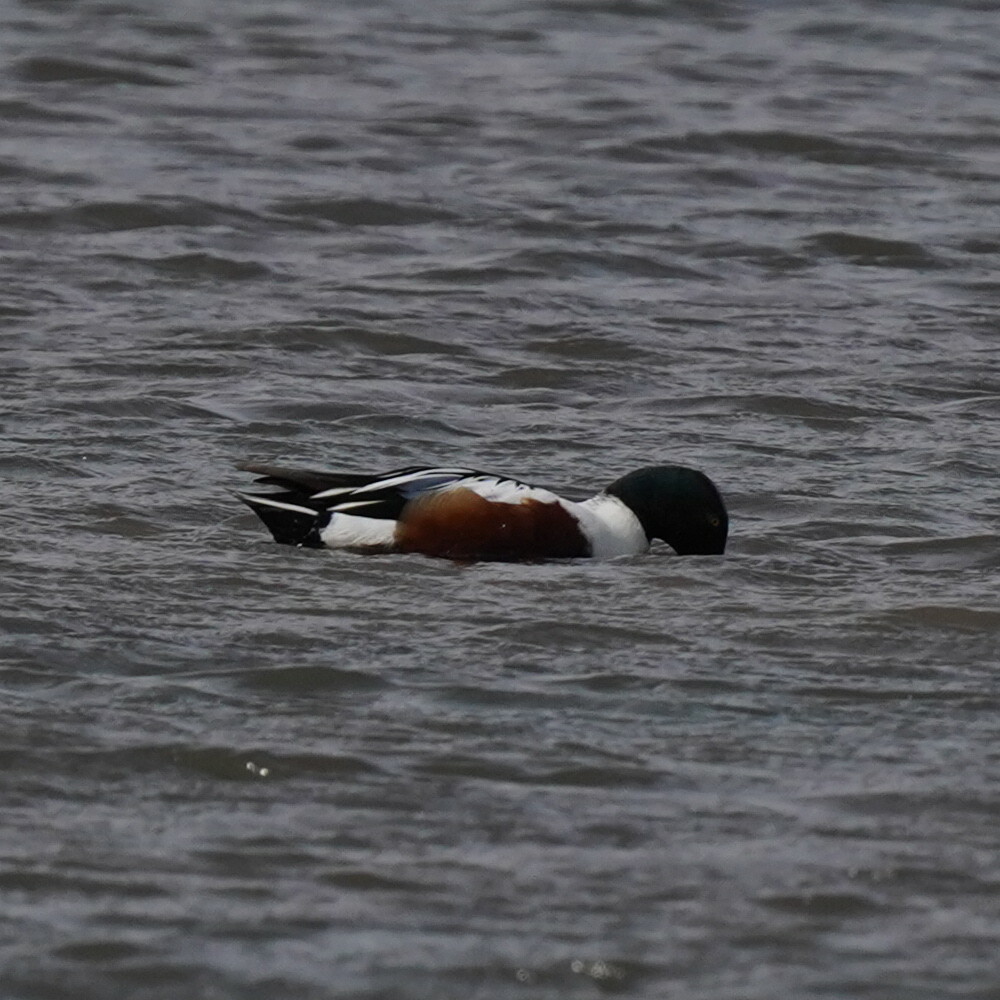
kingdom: Animalia
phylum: Chordata
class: Aves
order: Anseriformes
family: Anatidae
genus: Spatula
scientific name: Spatula clypeata
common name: Northern shoveler
